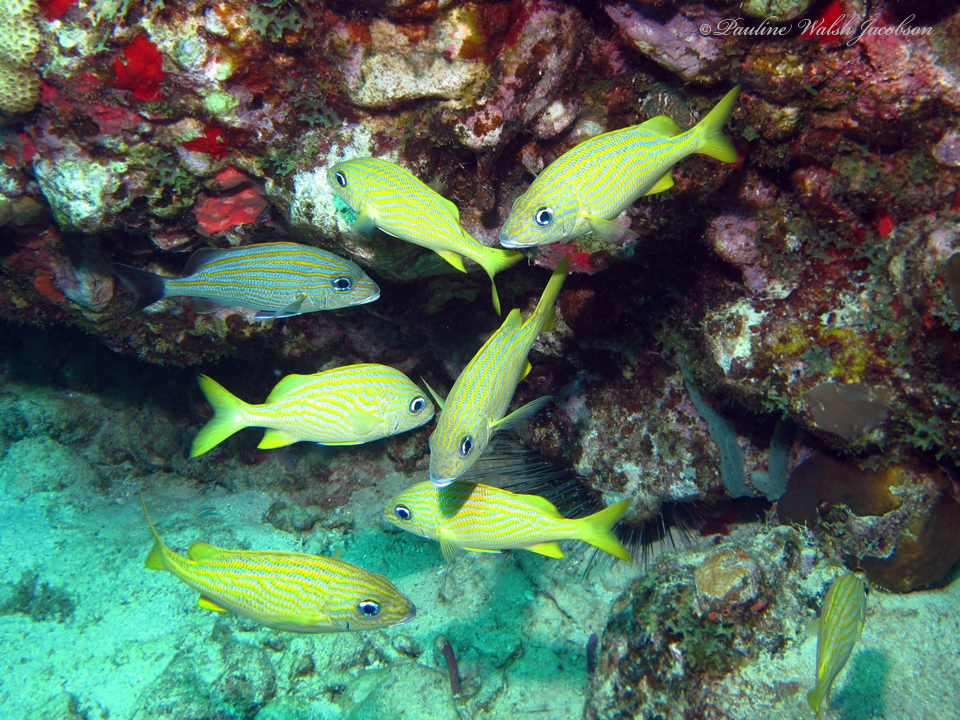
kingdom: Animalia
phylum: Chordata
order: Perciformes
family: Haemulidae
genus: Haemulon
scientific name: Haemulon flavolineatum
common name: French grunt
